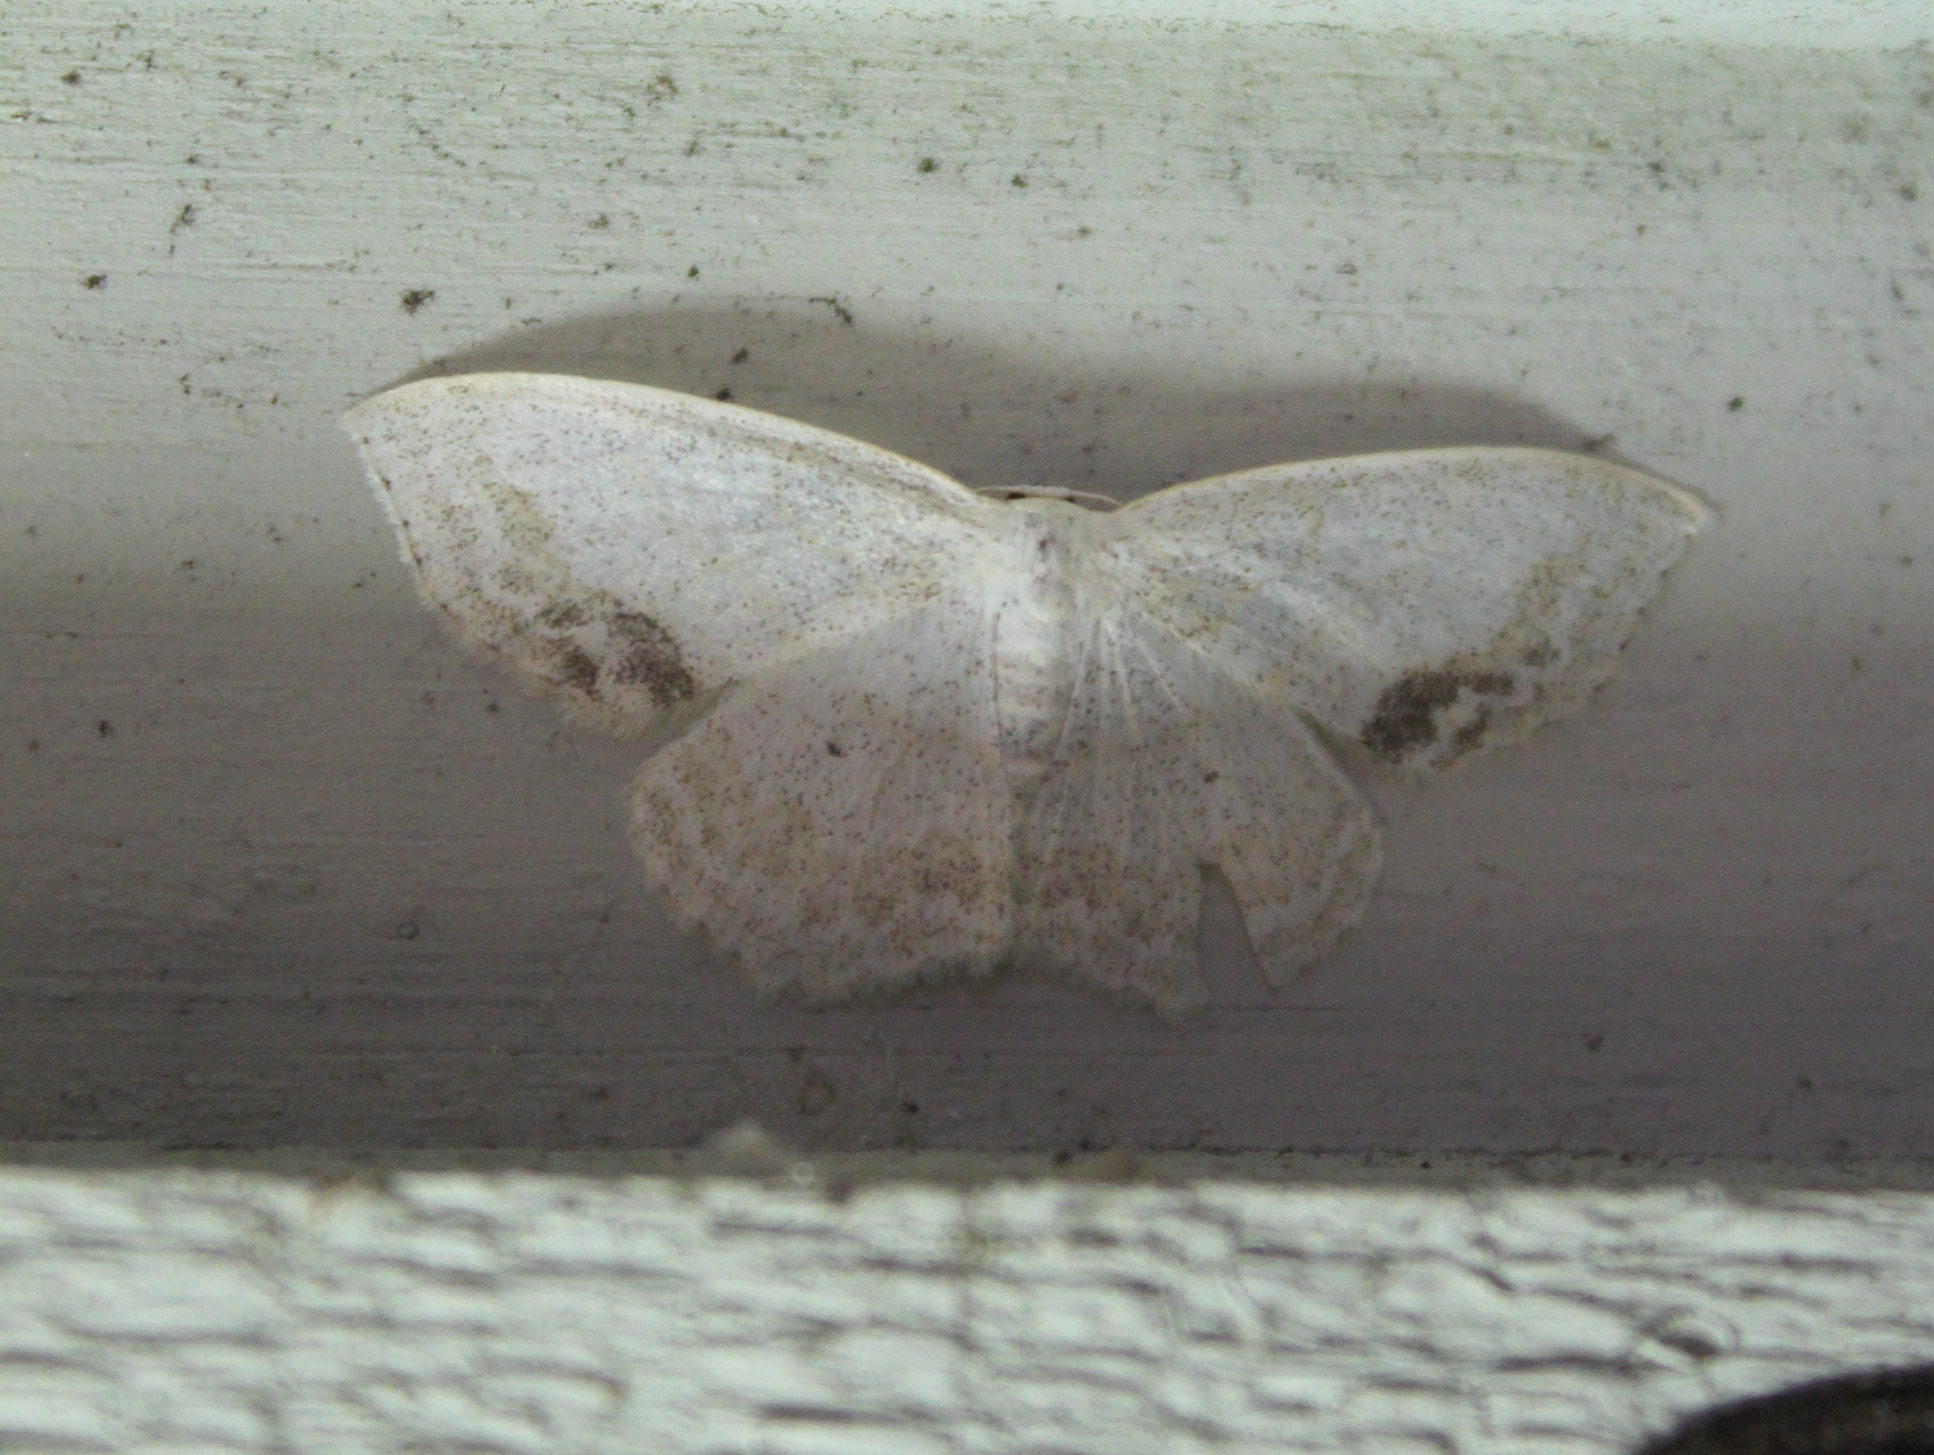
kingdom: Animalia
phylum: Arthropoda
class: Insecta
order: Lepidoptera
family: Geometridae
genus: Scopula
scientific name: Scopula limboundata
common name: Large lace border
